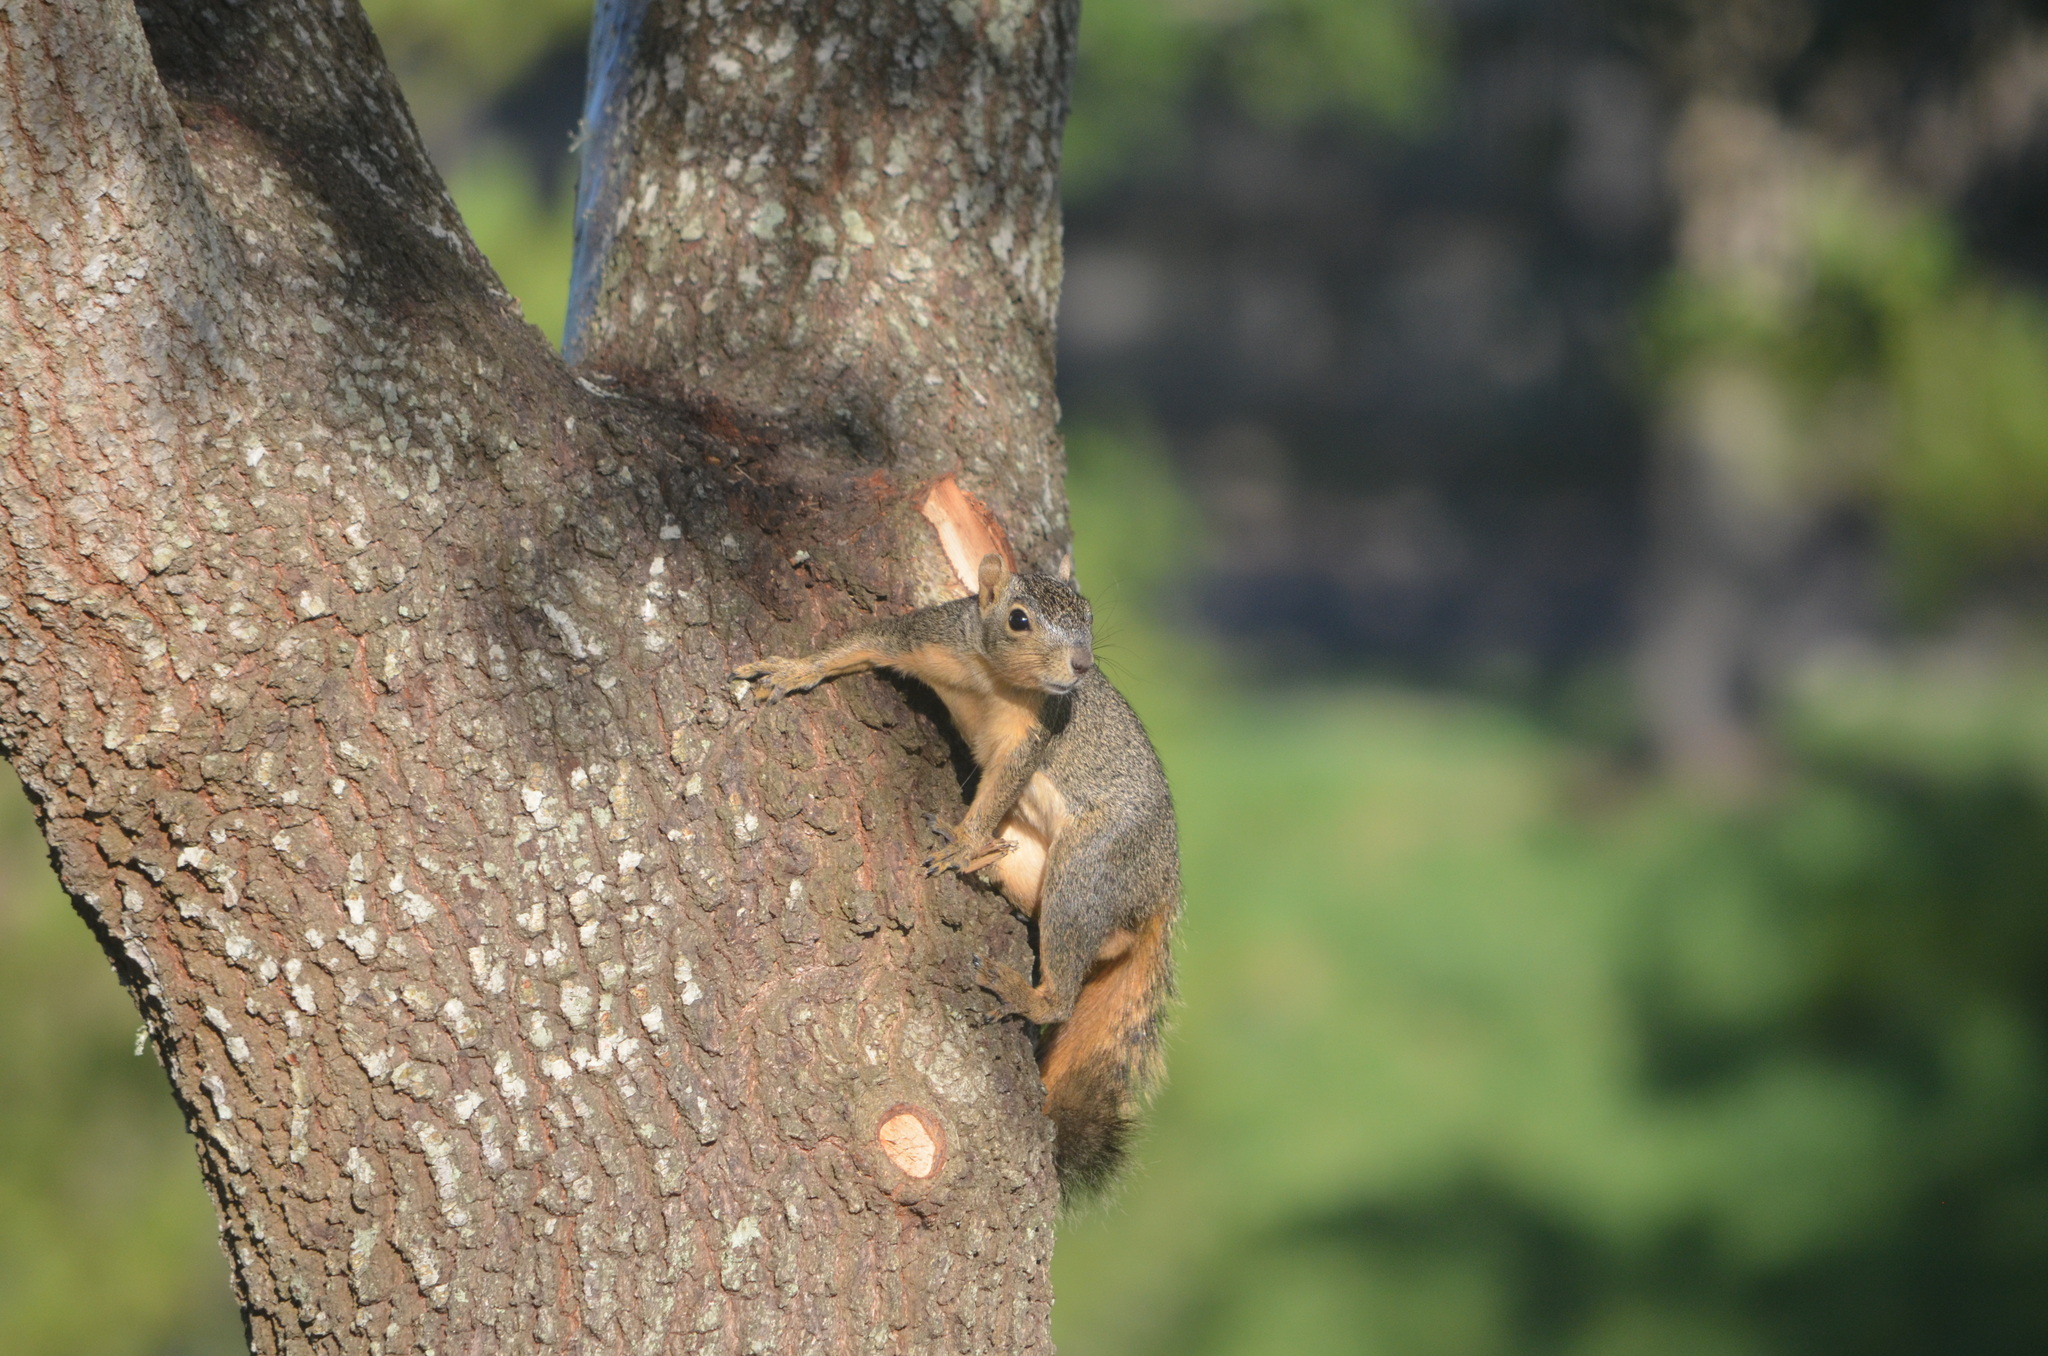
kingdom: Animalia
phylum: Chordata
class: Mammalia
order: Rodentia
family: Sciuridae
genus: Sciurus
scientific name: Sciurus niger
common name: Fox squirrel
